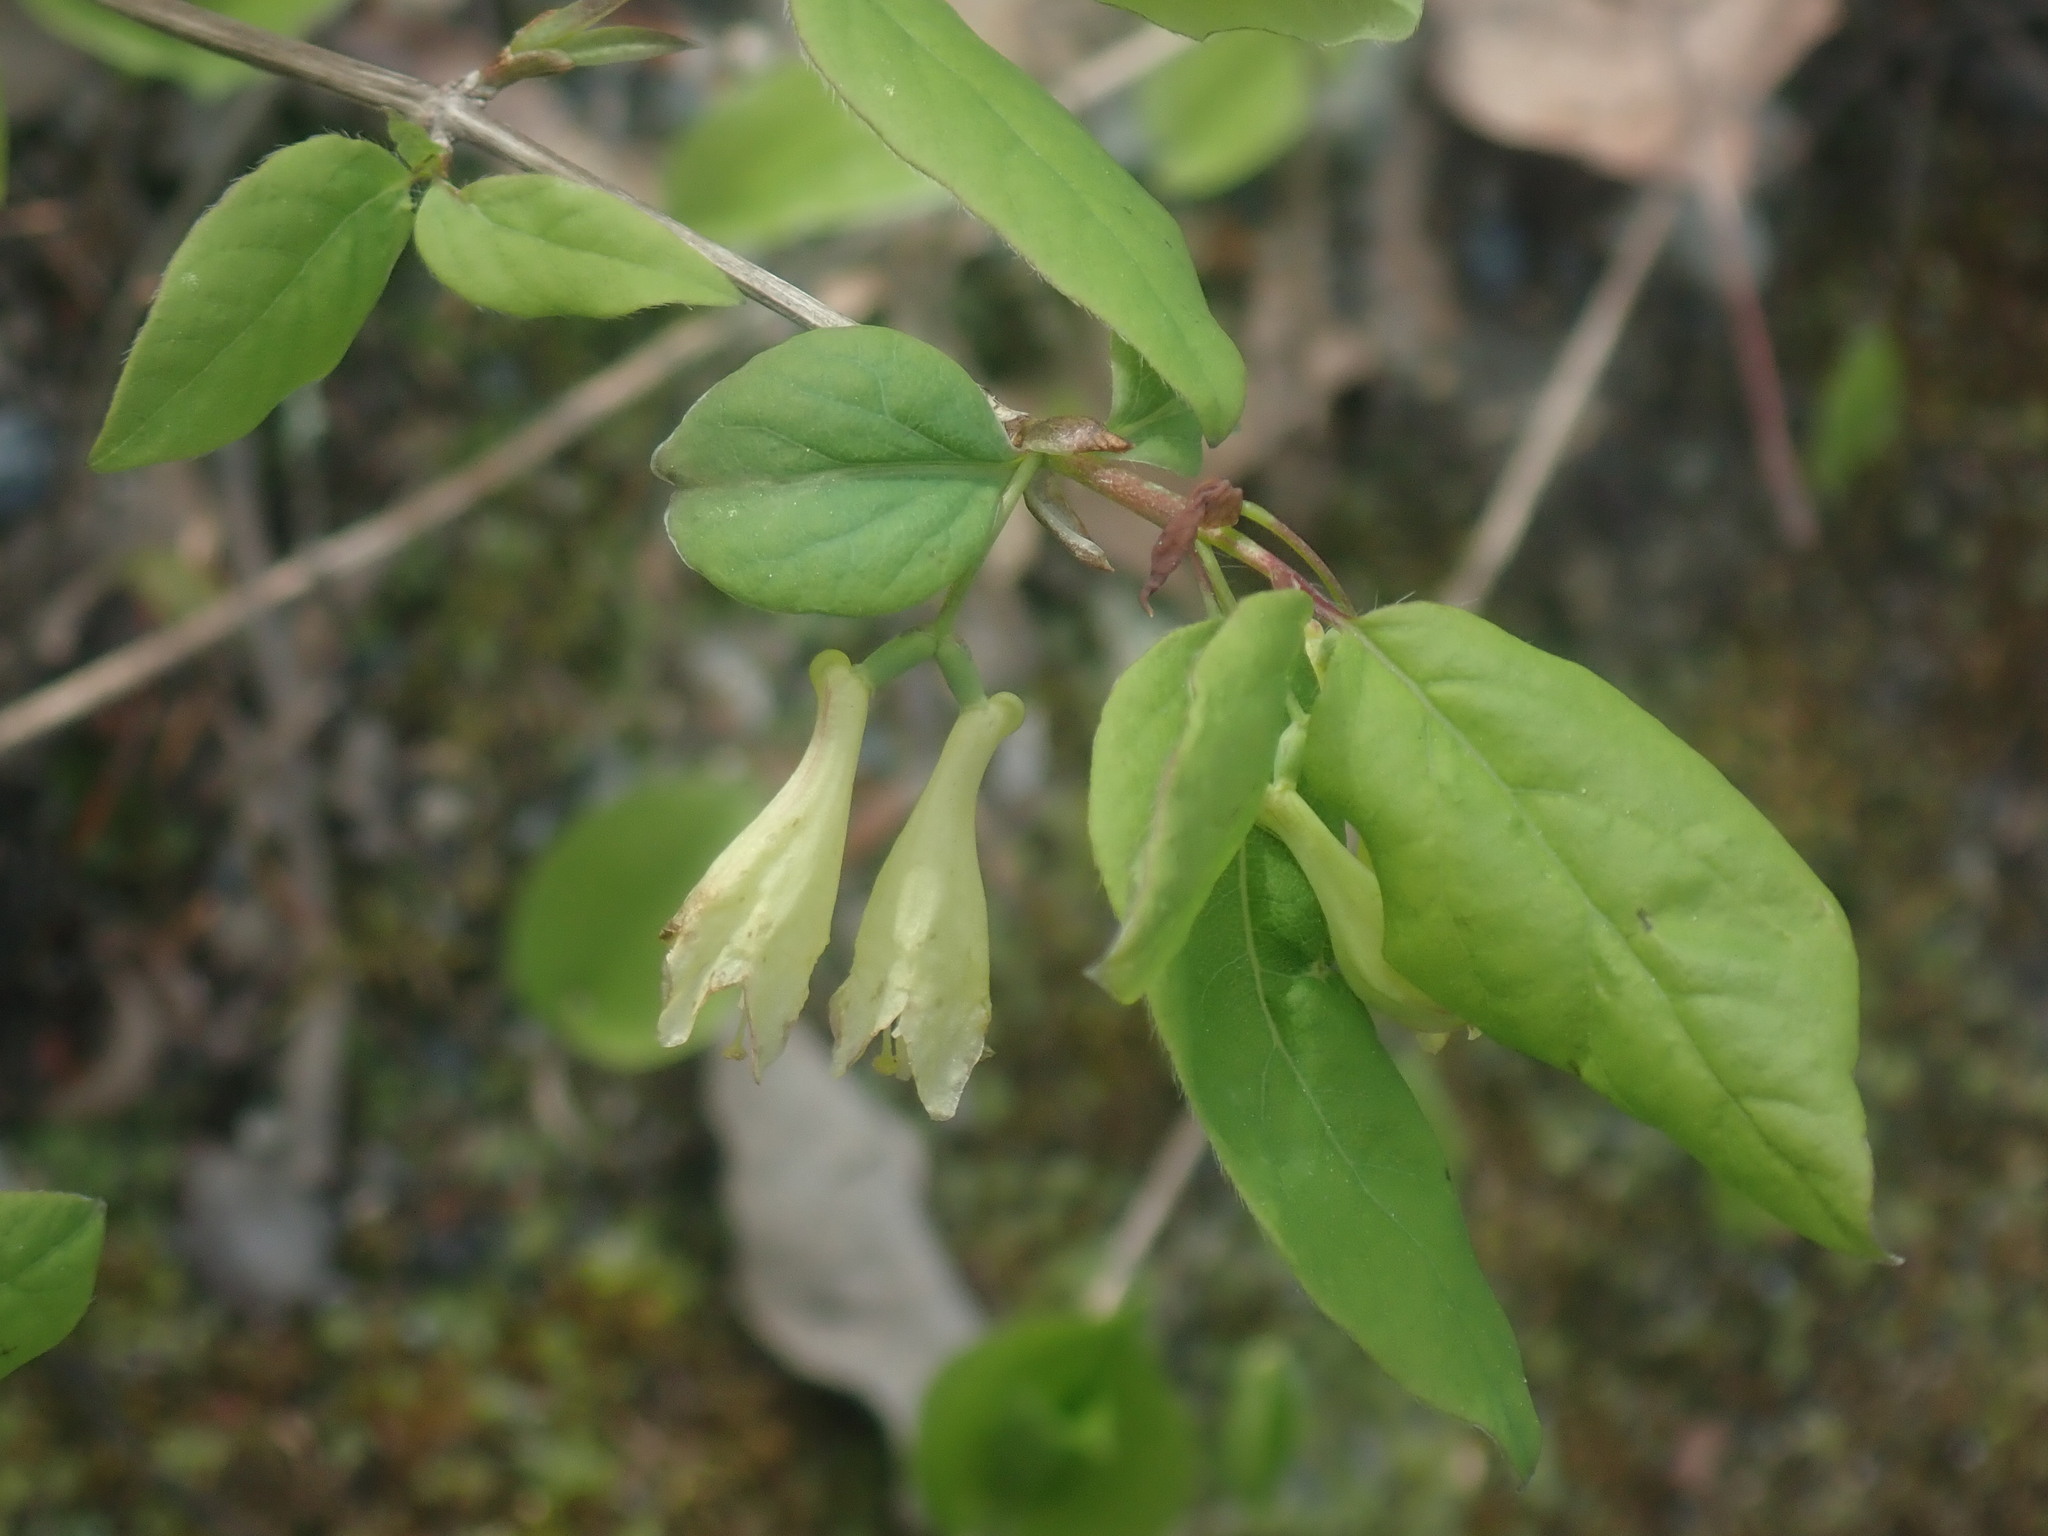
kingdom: Plantae
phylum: Tracheophyta
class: Magnoliopsida
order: Dipsacales
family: Caprifoliaceae
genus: Lonicera
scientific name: Lonicera canadensis
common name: American fly-honeysuckle
